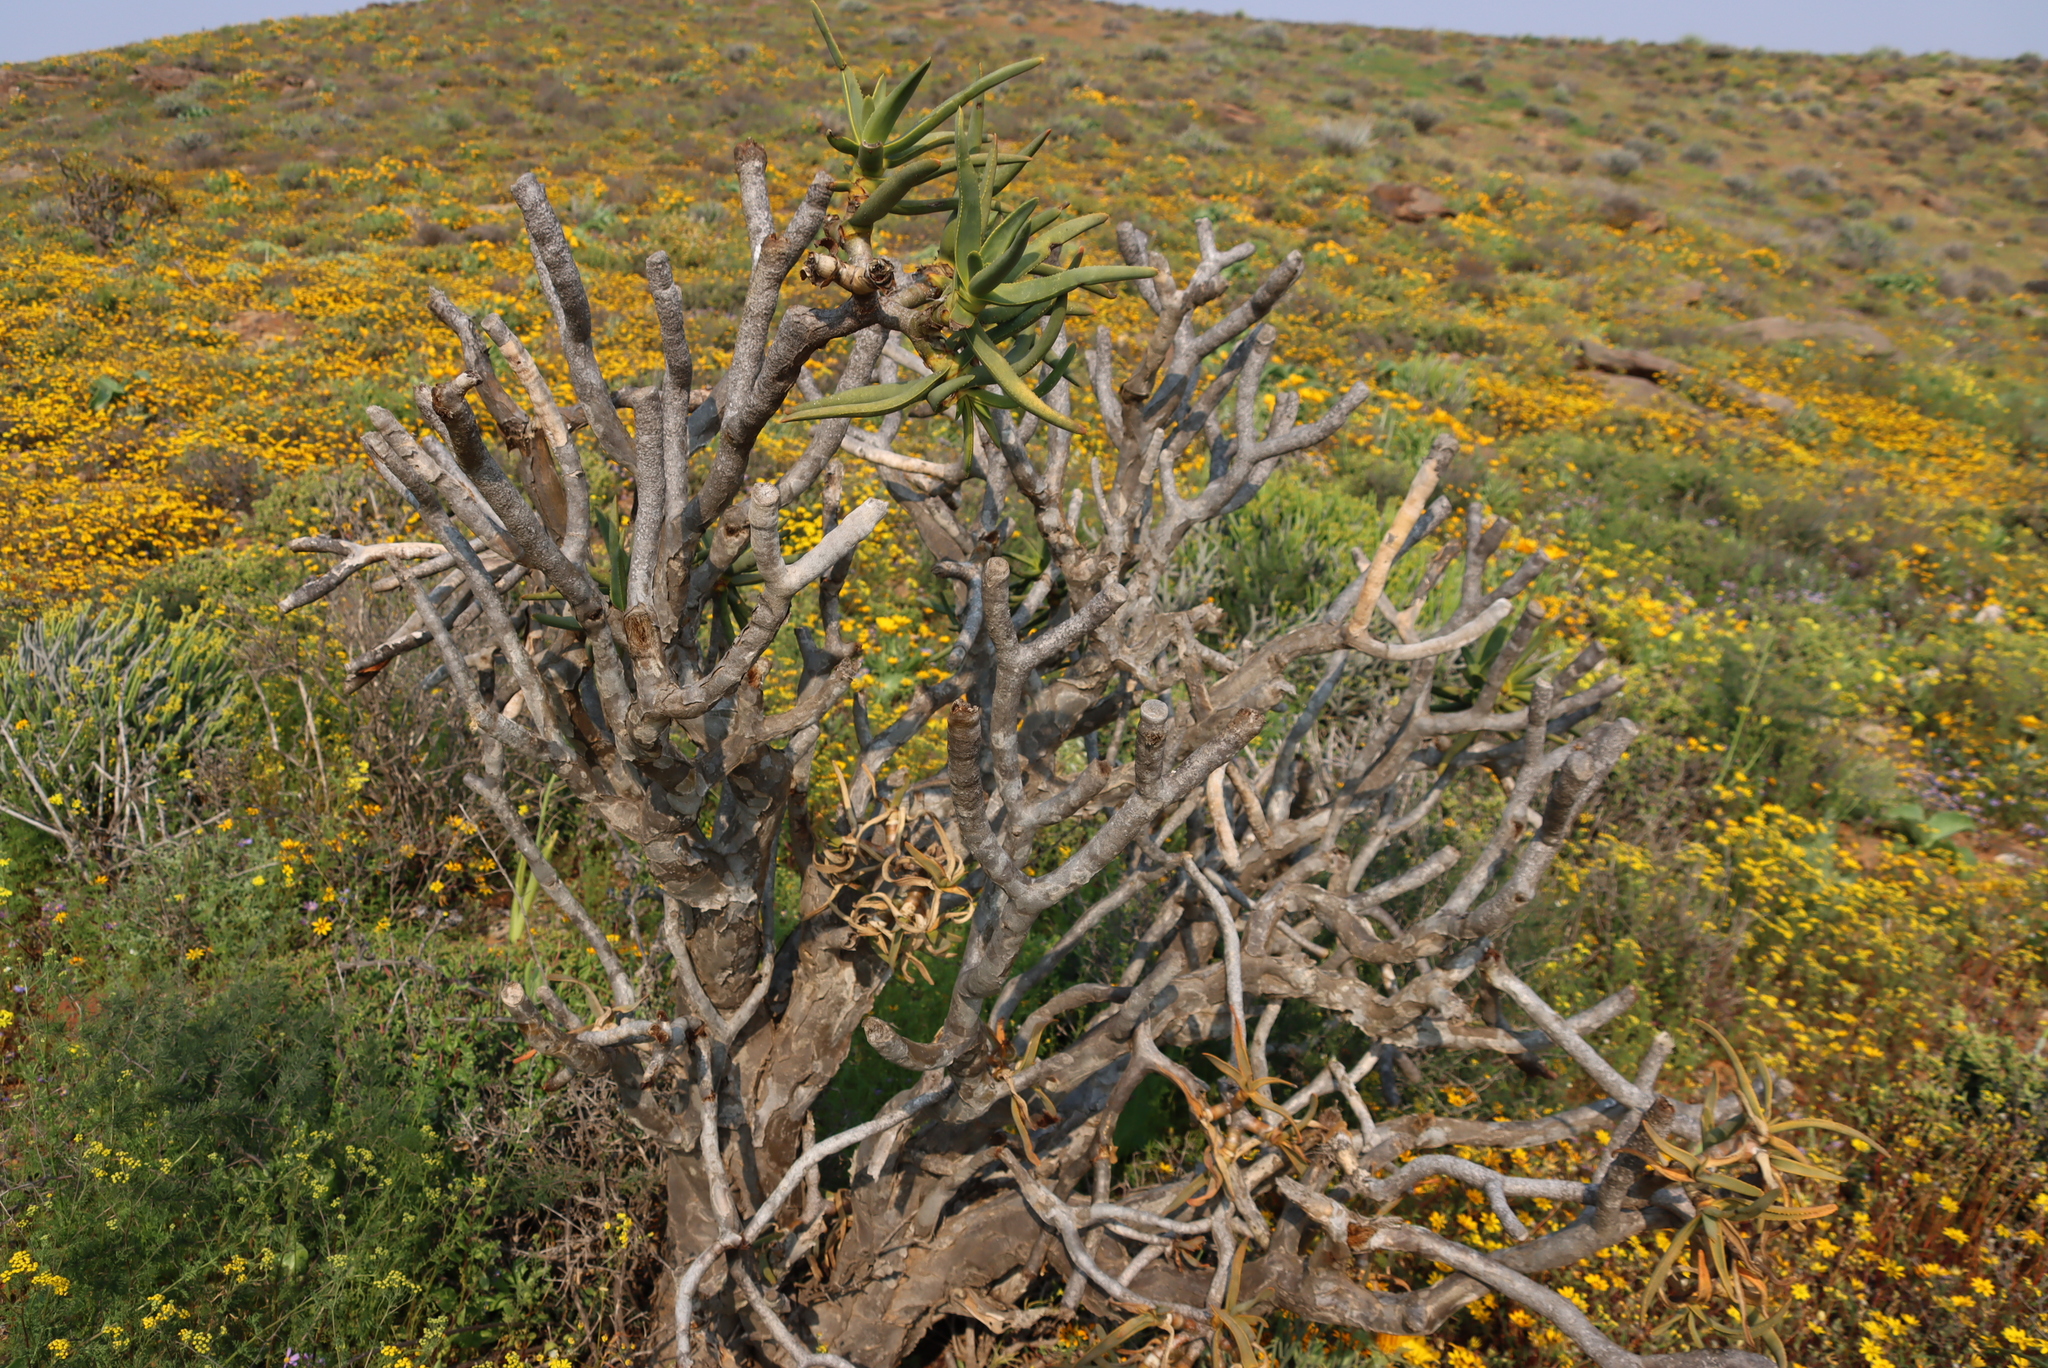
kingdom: Plantae
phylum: Tracheophyta
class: Liliopsida
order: Asparagales
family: Asphodelaceae
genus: Aloidendron
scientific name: Aloidendron ramosissimum
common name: Bush quiver tree
